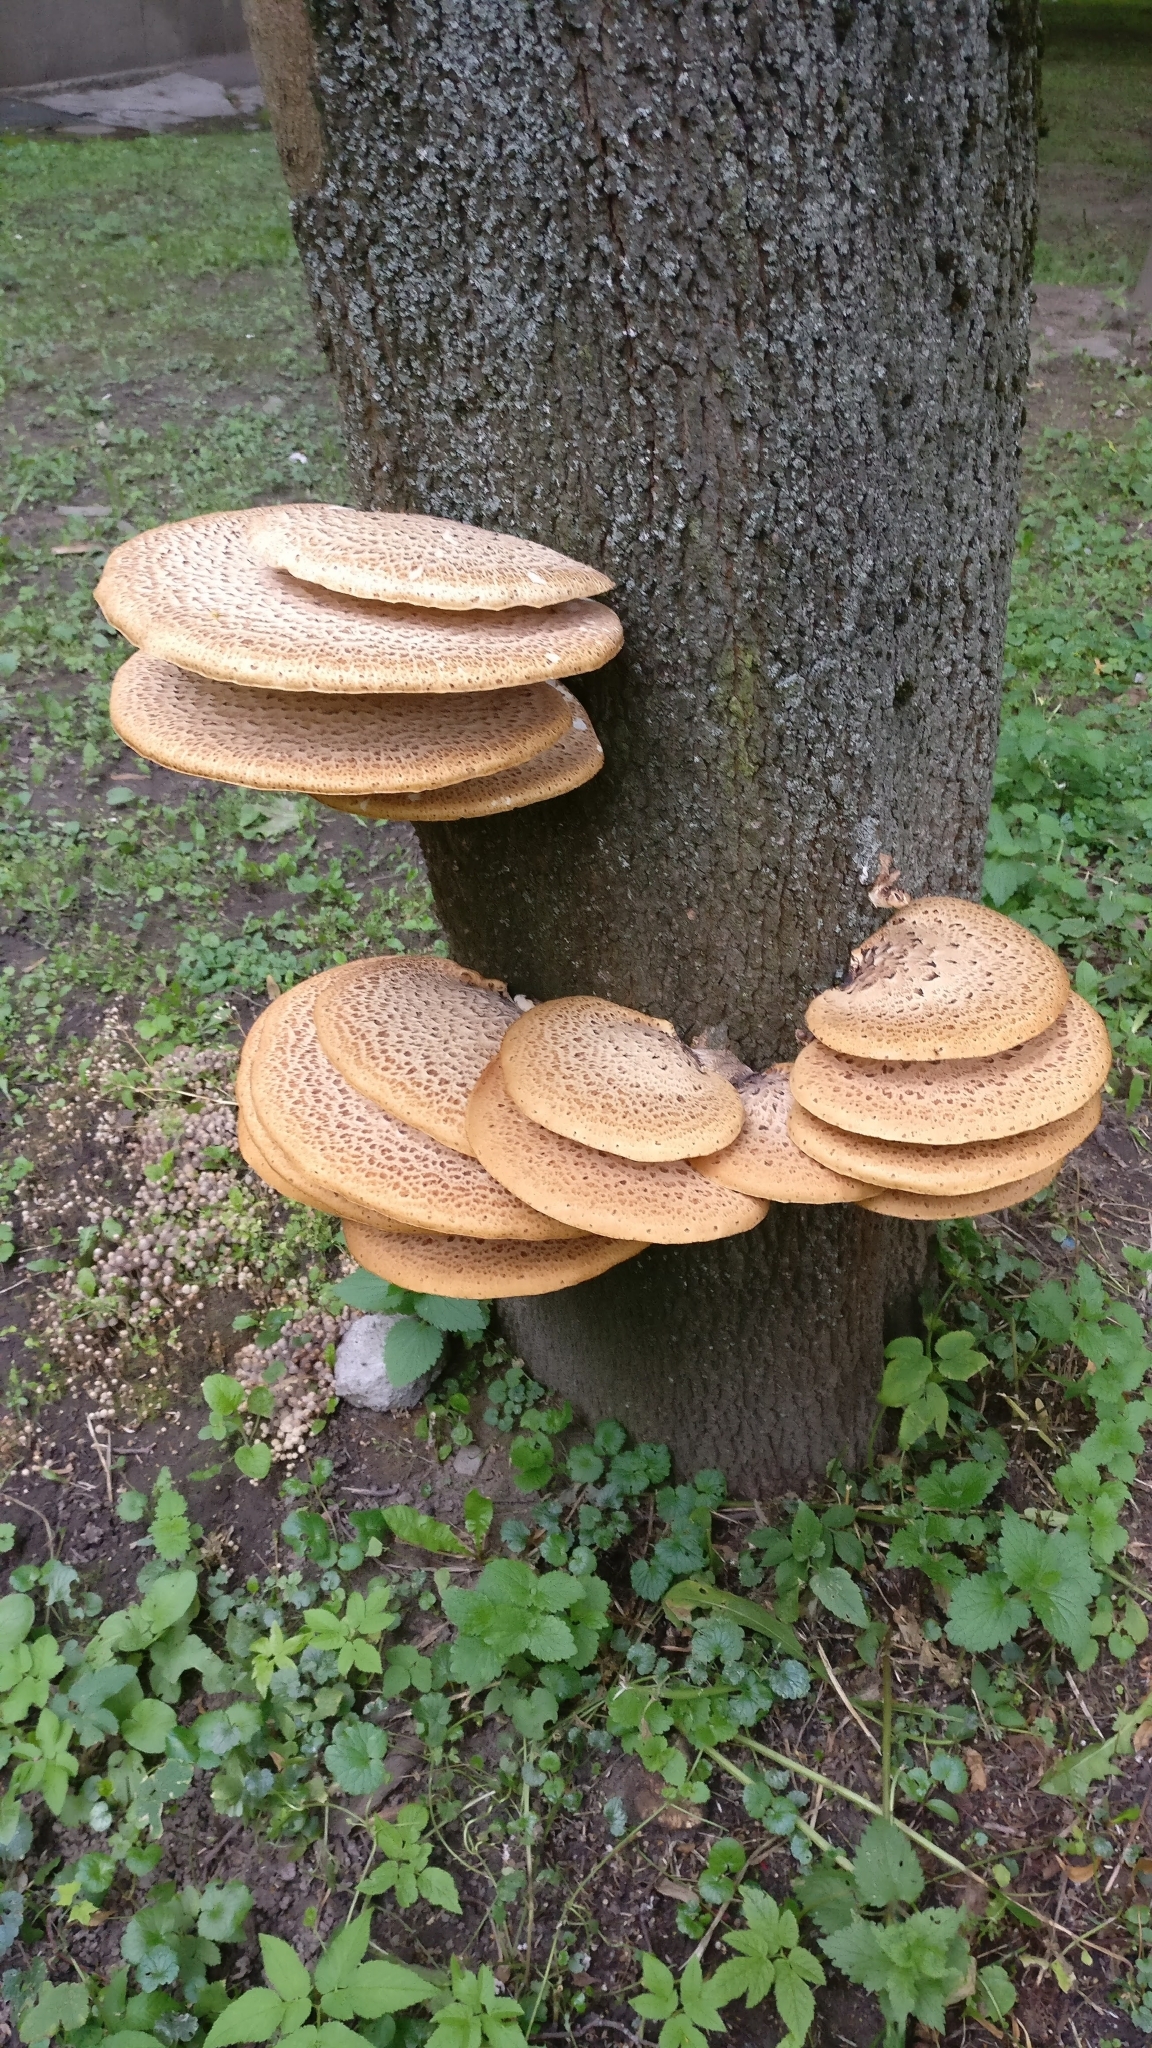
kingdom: Fungi
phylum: Basidiomycota
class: Agaricomycetes
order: Polyporales
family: Polyporaceae
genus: Cerioporus
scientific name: Cerioporus squamosus
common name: Dryad's saddle
